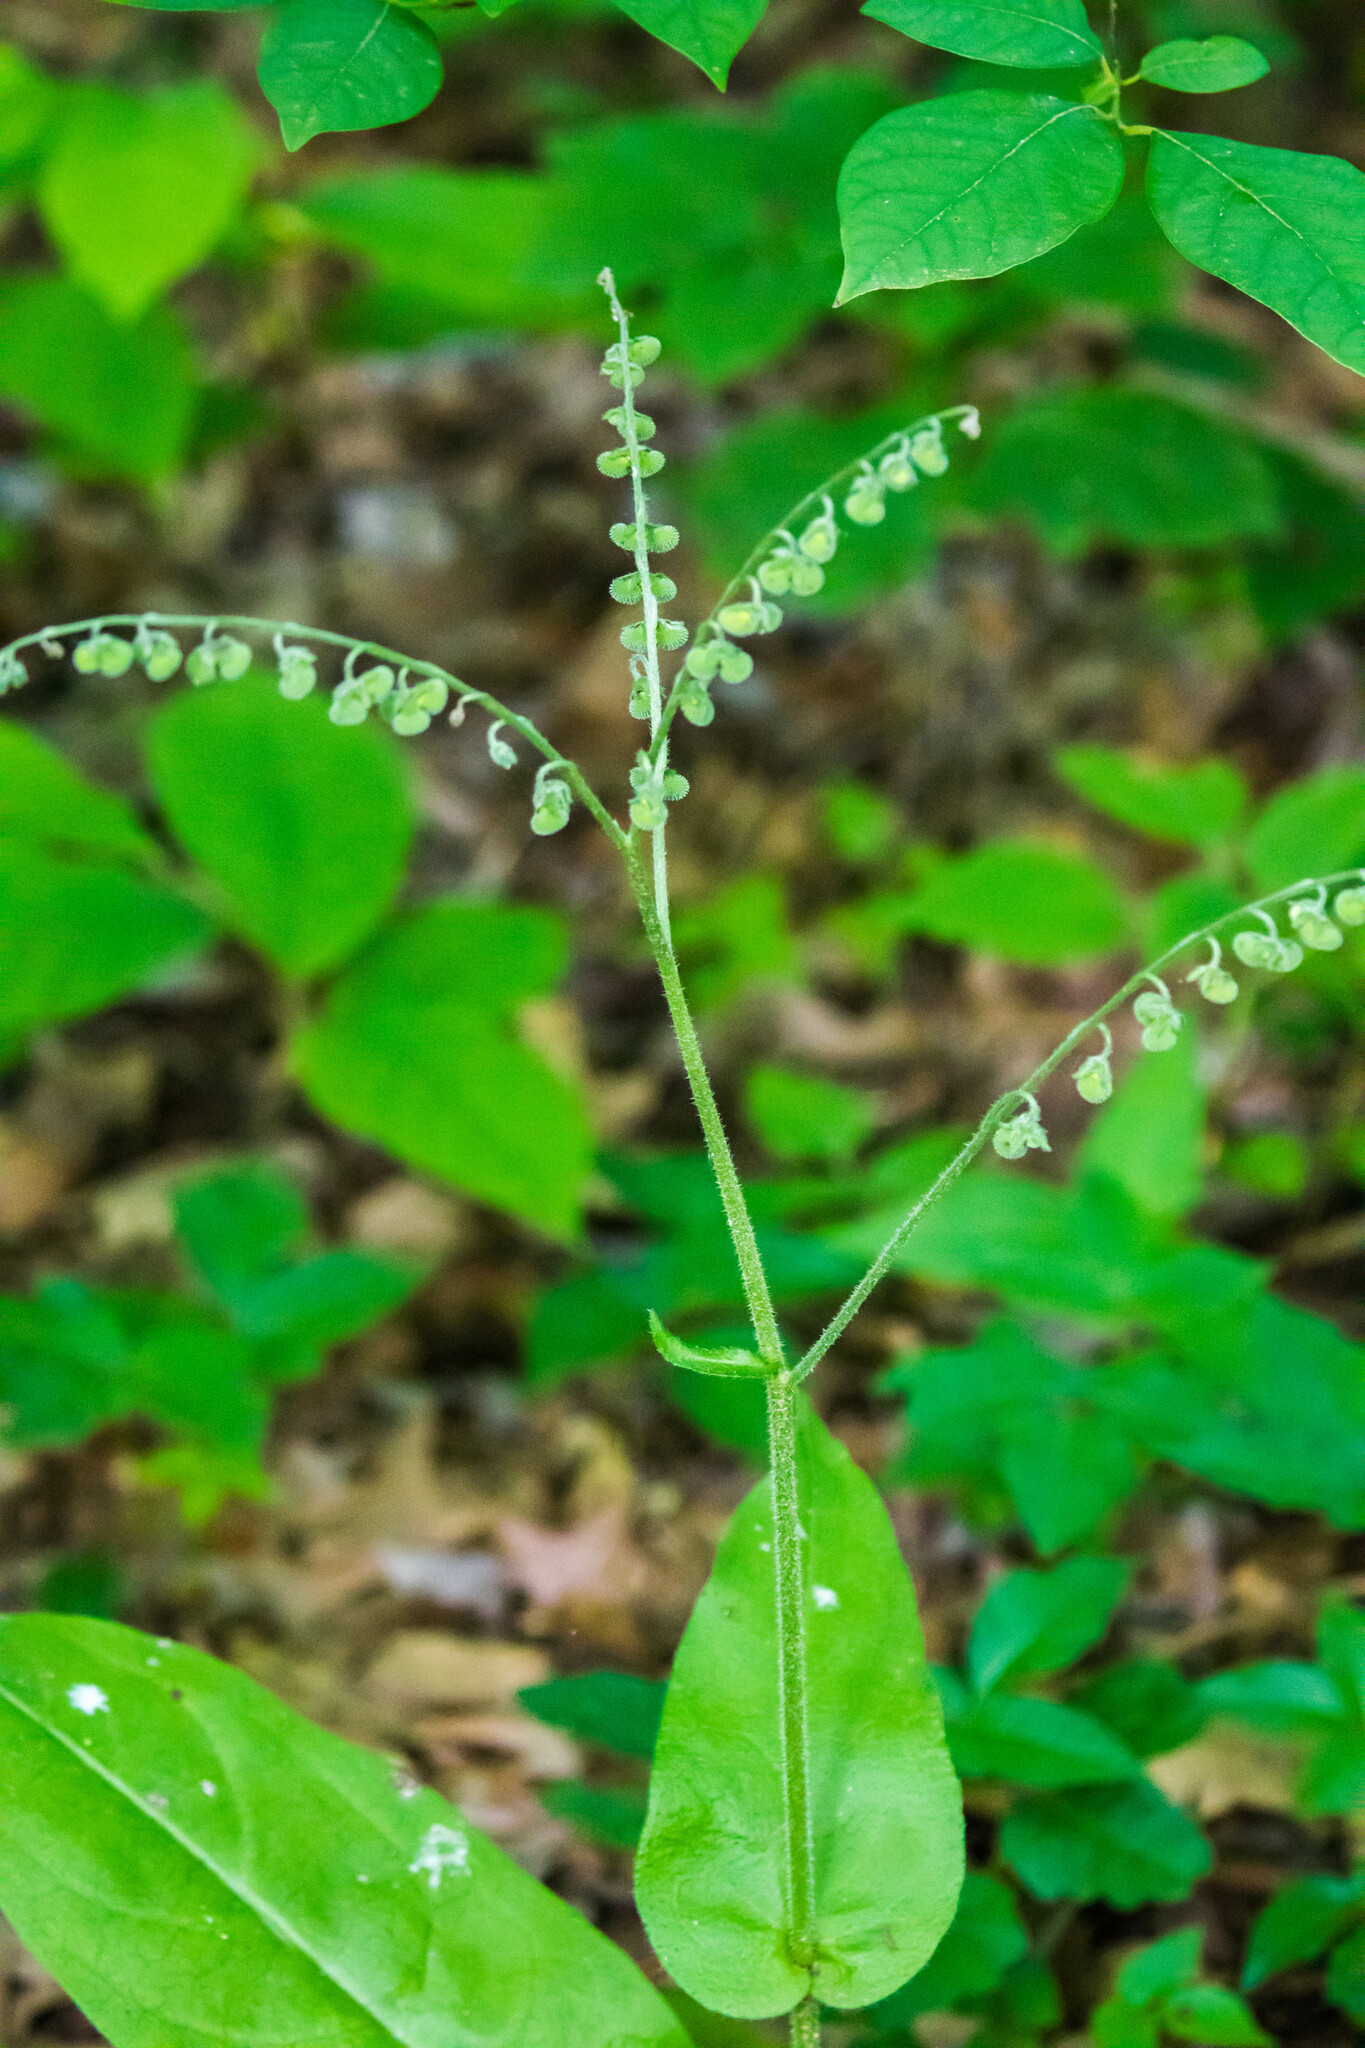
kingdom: Plantae
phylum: Tracheophyta
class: Magnoliopsida
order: Boraginales
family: Boraginaceae
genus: Andersonglossum
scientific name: Andersonglossum virginianum
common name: Wild comfrey
